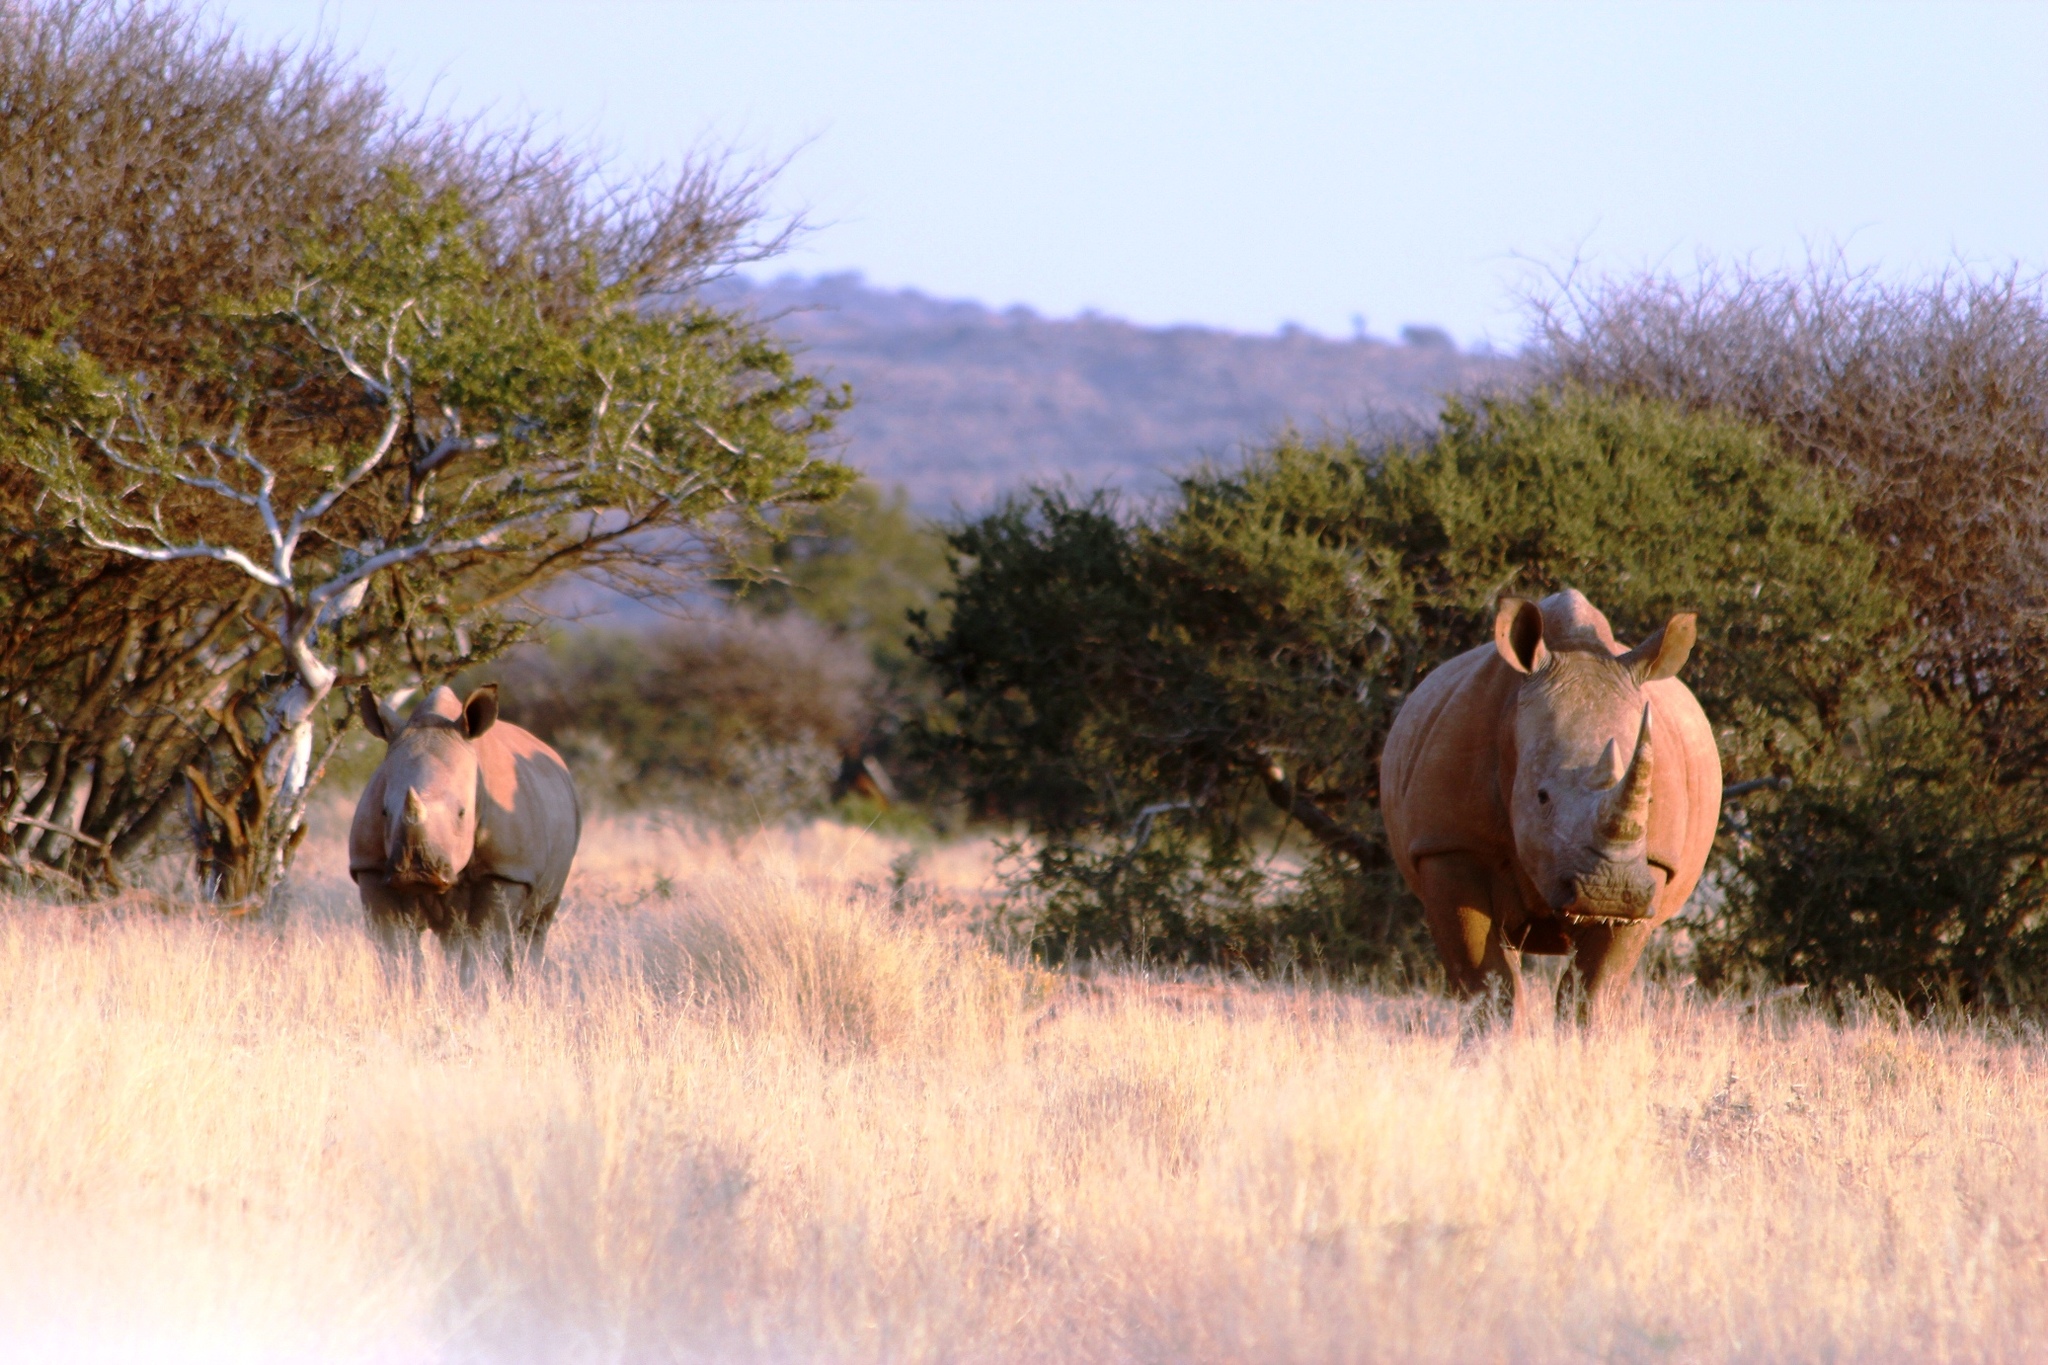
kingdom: Animalia
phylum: Chordata
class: Mammalia
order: Perissodactyla
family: Rhinocerotidae
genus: Ceratotherium
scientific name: Ceratotherium simum
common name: White rhinoceros
